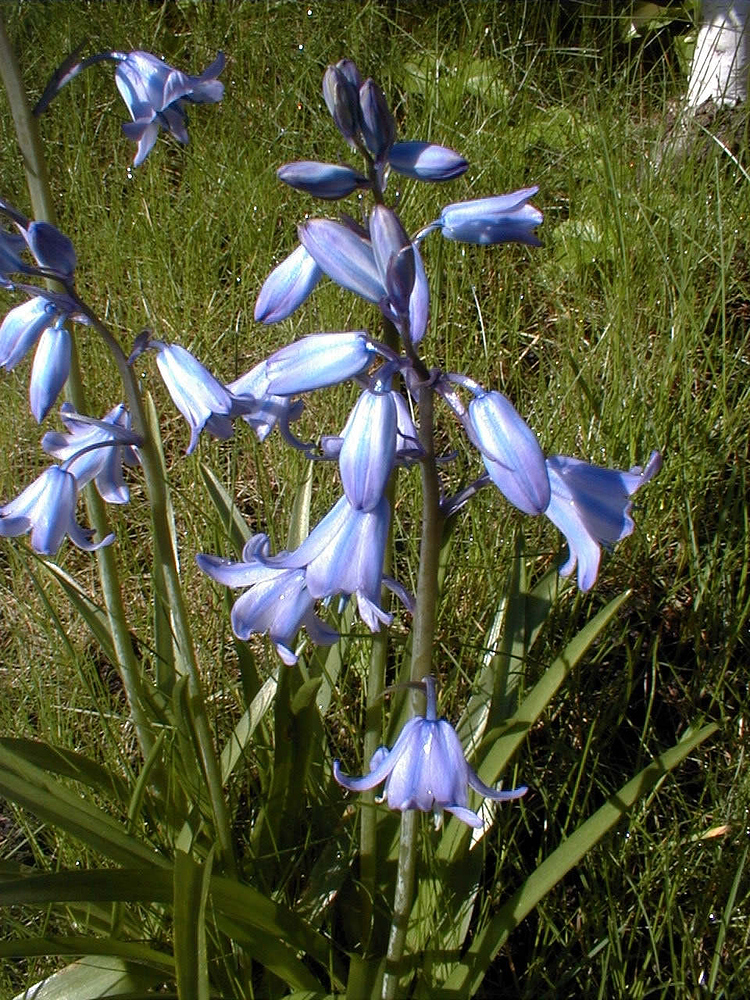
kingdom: Plantae
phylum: Tracheophyta
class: Liliopsida
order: Asparagales
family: Asparagaceae
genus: Hyacinthoides
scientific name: Hyacinthoides non-scripta
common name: Bluebell
